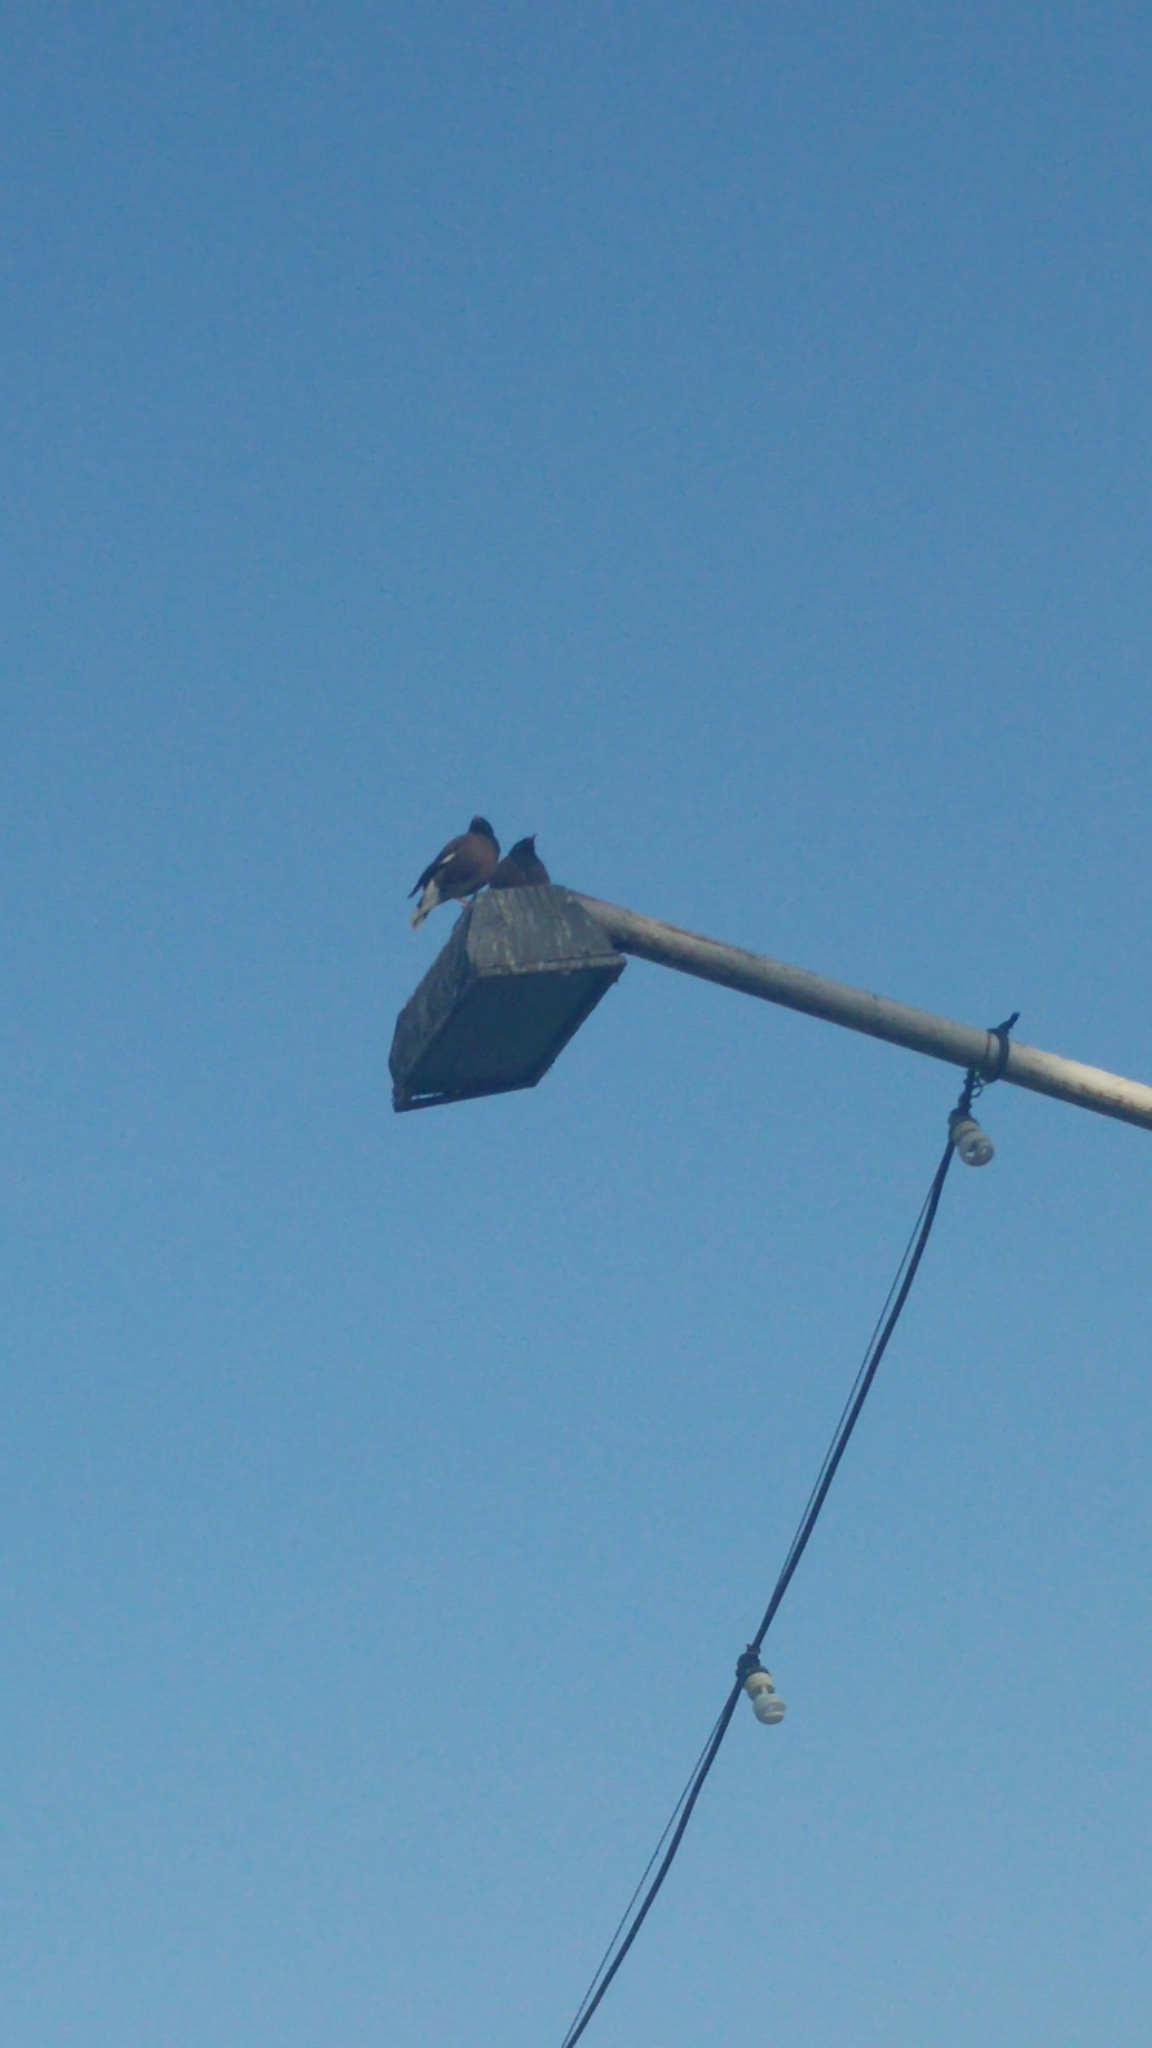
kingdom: Animalia
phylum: Chordata
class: Aves
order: Passeriformes
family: Sturnidae
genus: Acridotheres
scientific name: Acridotheres tristis
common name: Common myna
